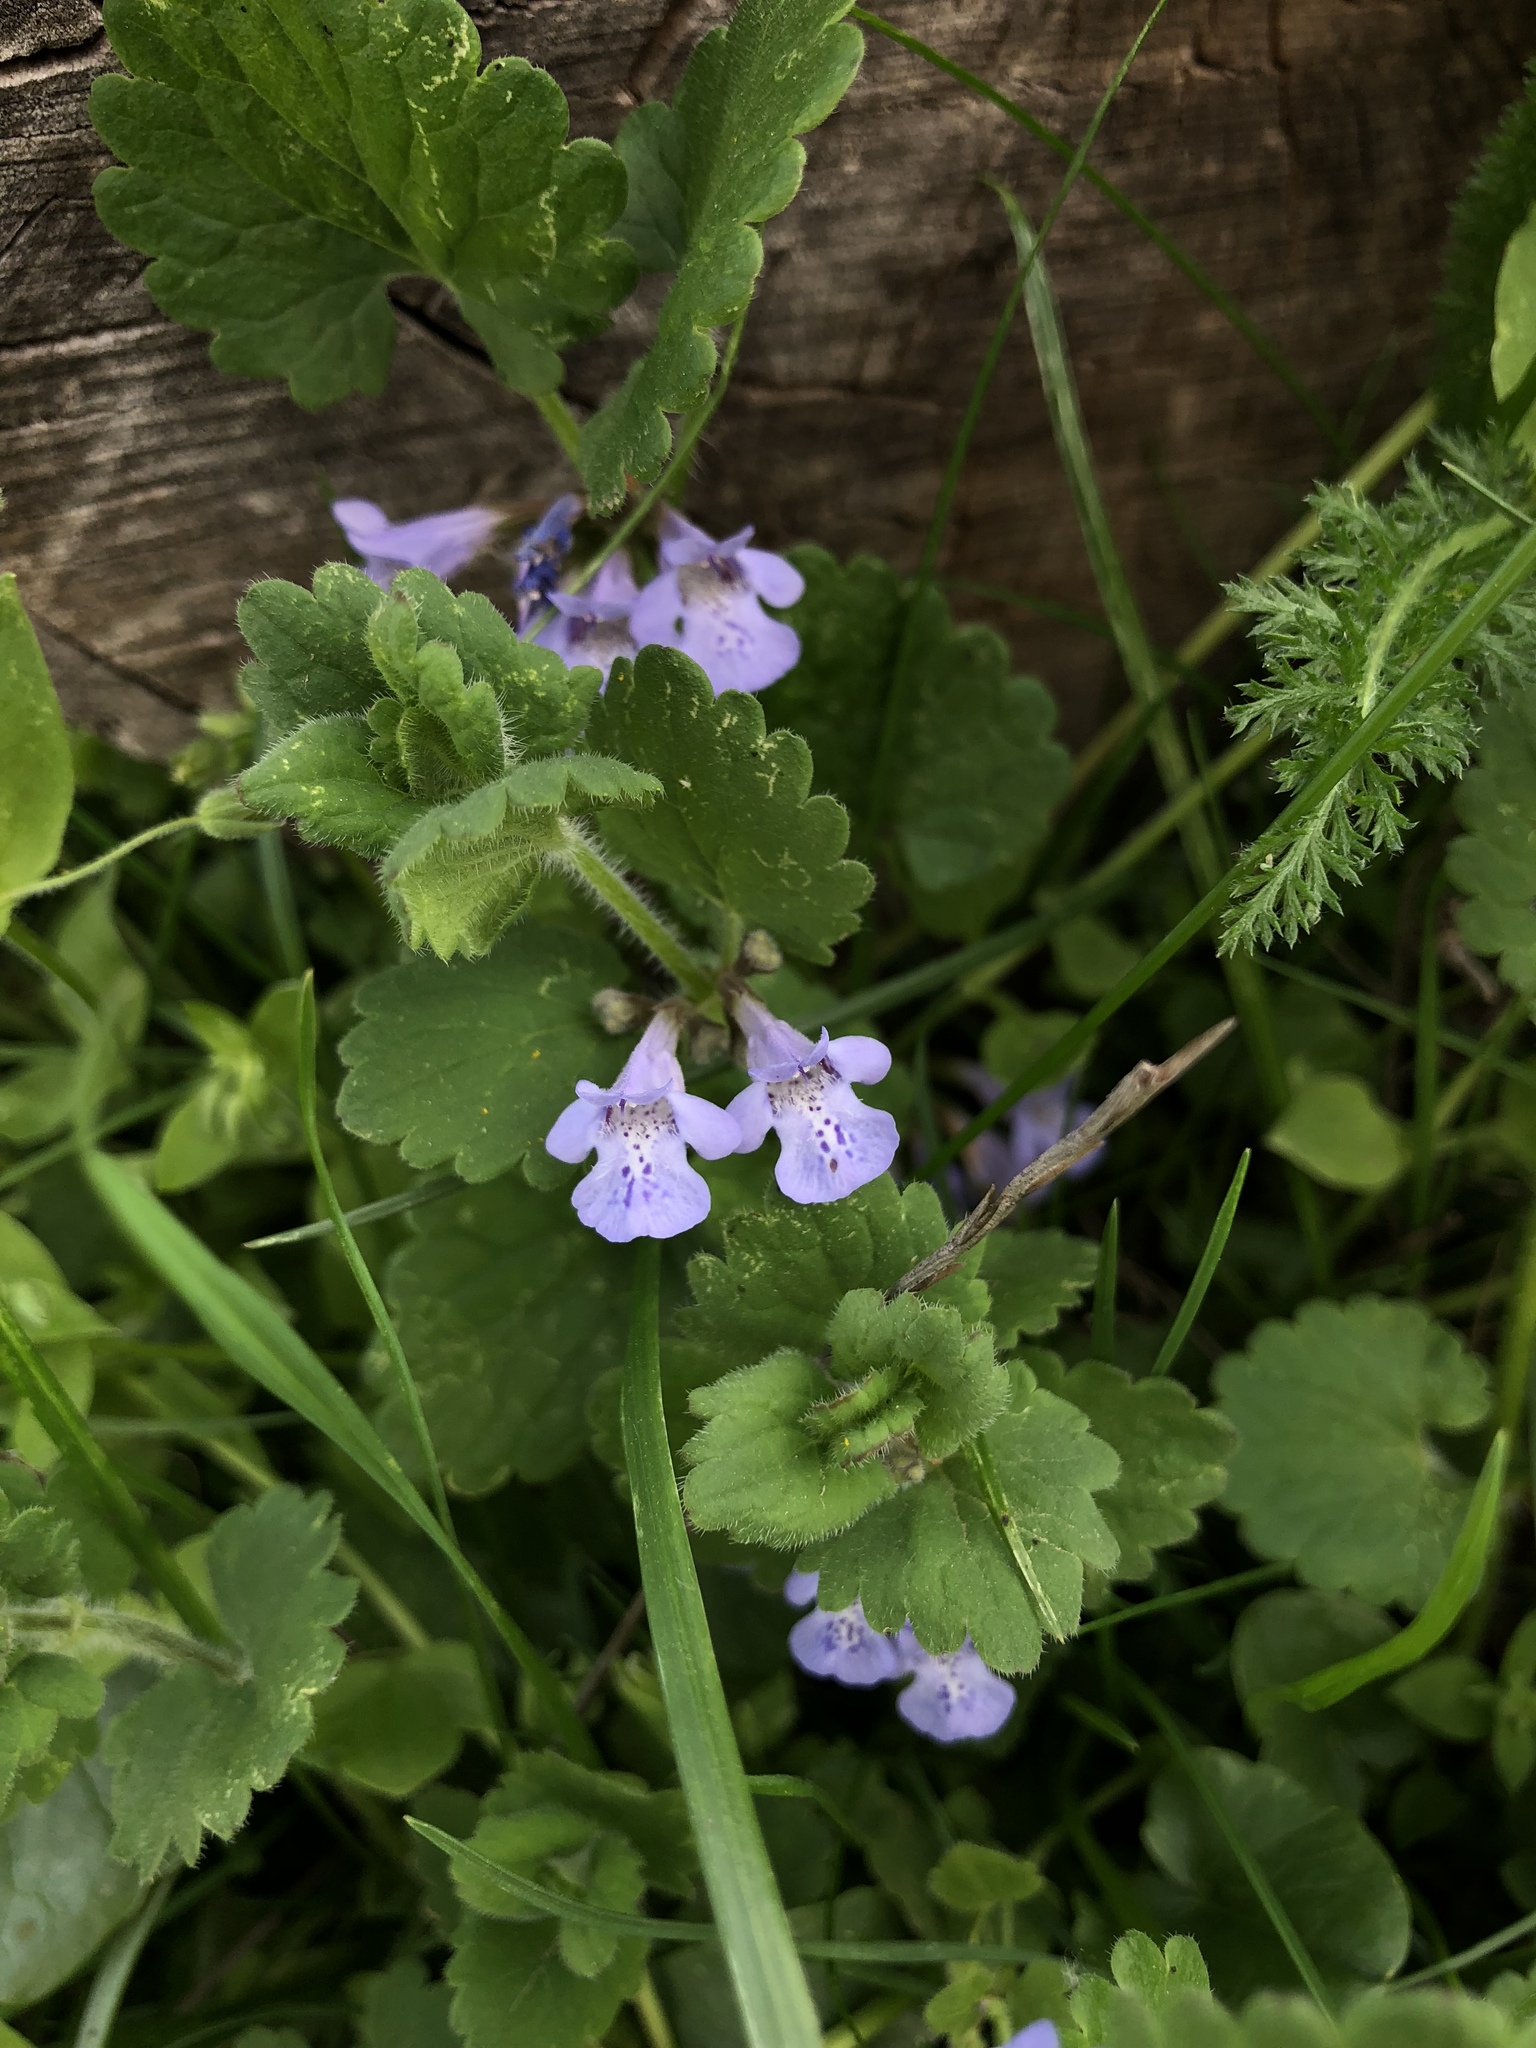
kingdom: Plantae
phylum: Tracheophyta
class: Magnoliopsida
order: Lamiales
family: Lamiaceae
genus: Glechoma
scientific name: Glechoma hirsuta
